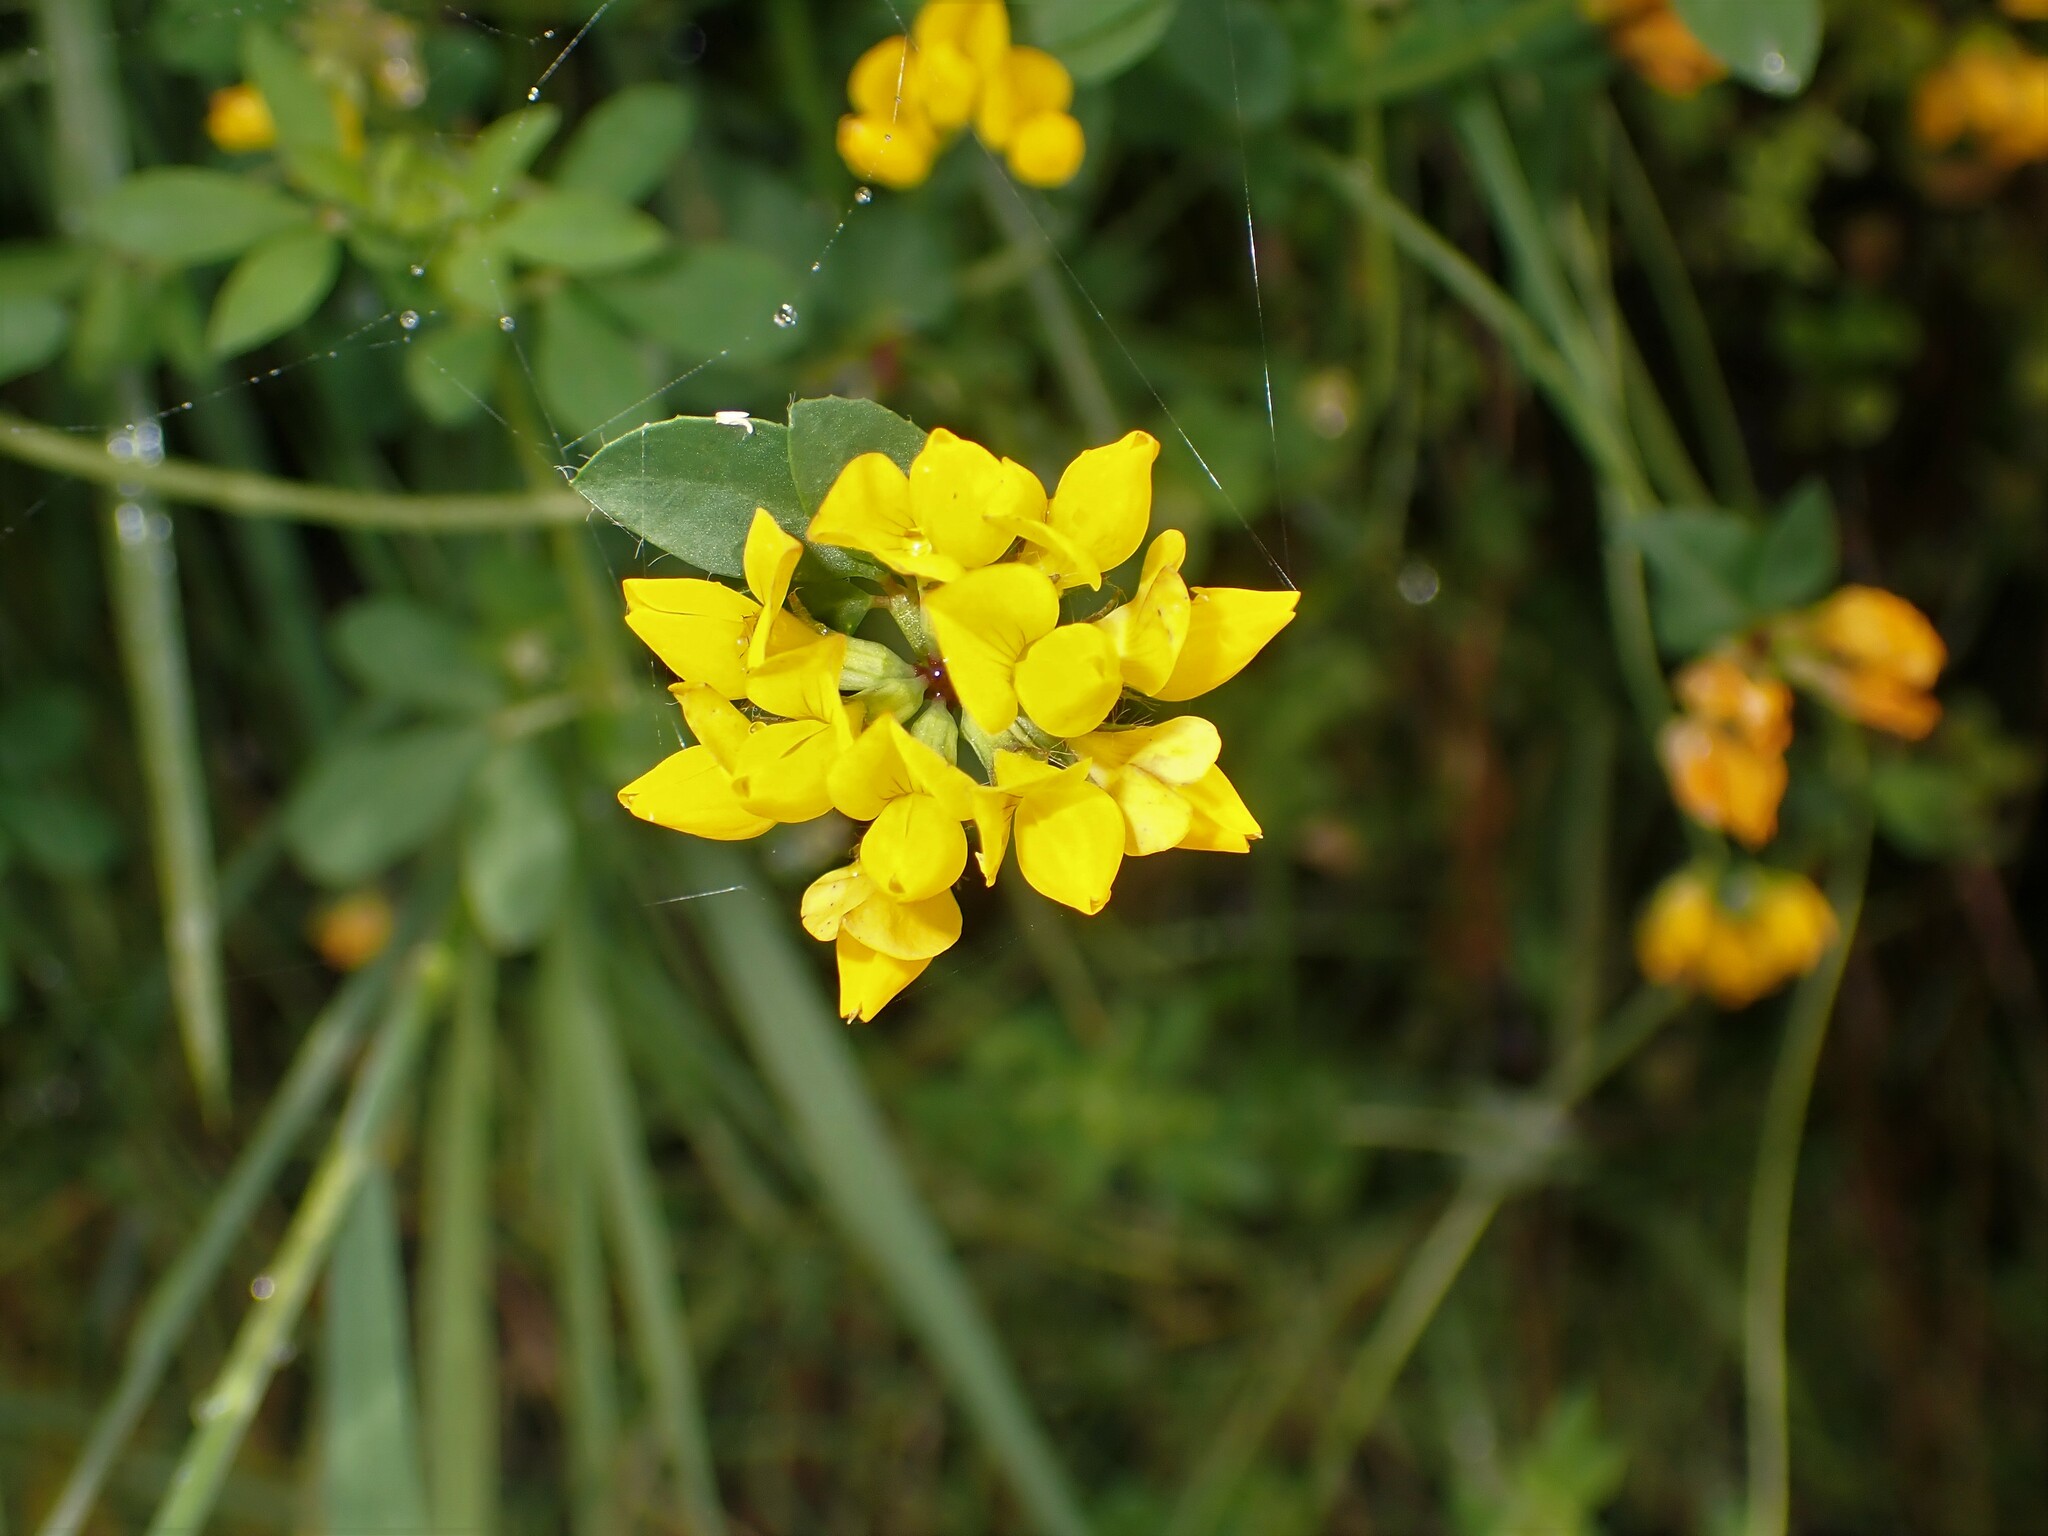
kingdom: Plantae
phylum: Tracheophyta
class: Magnoliopsida
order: Fabales
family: Fabaceae
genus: Lotus
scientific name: Lotus pedunculatus
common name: Greater birdsfoot-trefoil
